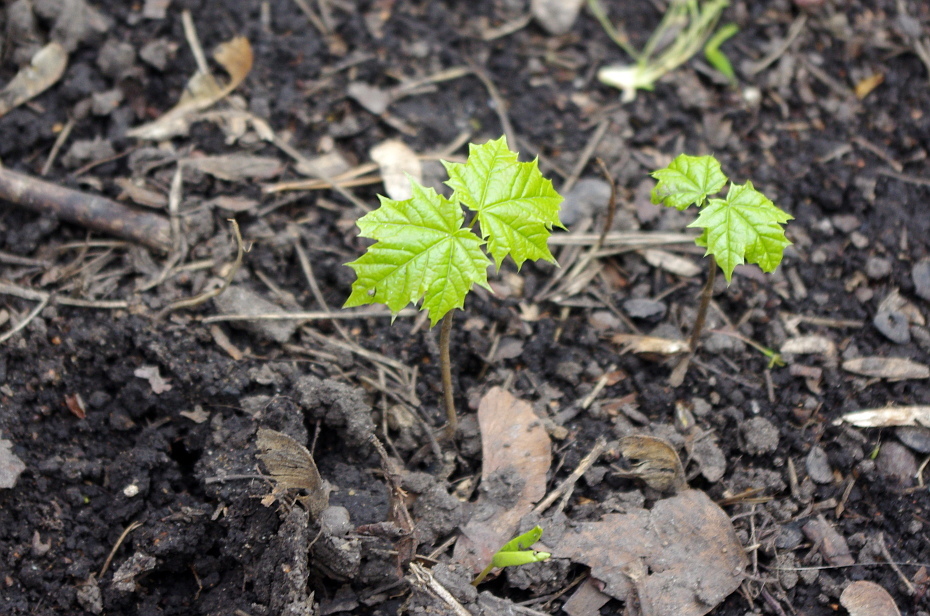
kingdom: Plantae
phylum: Tracheophyta
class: Magnoliopsida
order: Sapindales
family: Sapindaceae
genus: Acer
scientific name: Acer platanoides
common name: Norway maple
